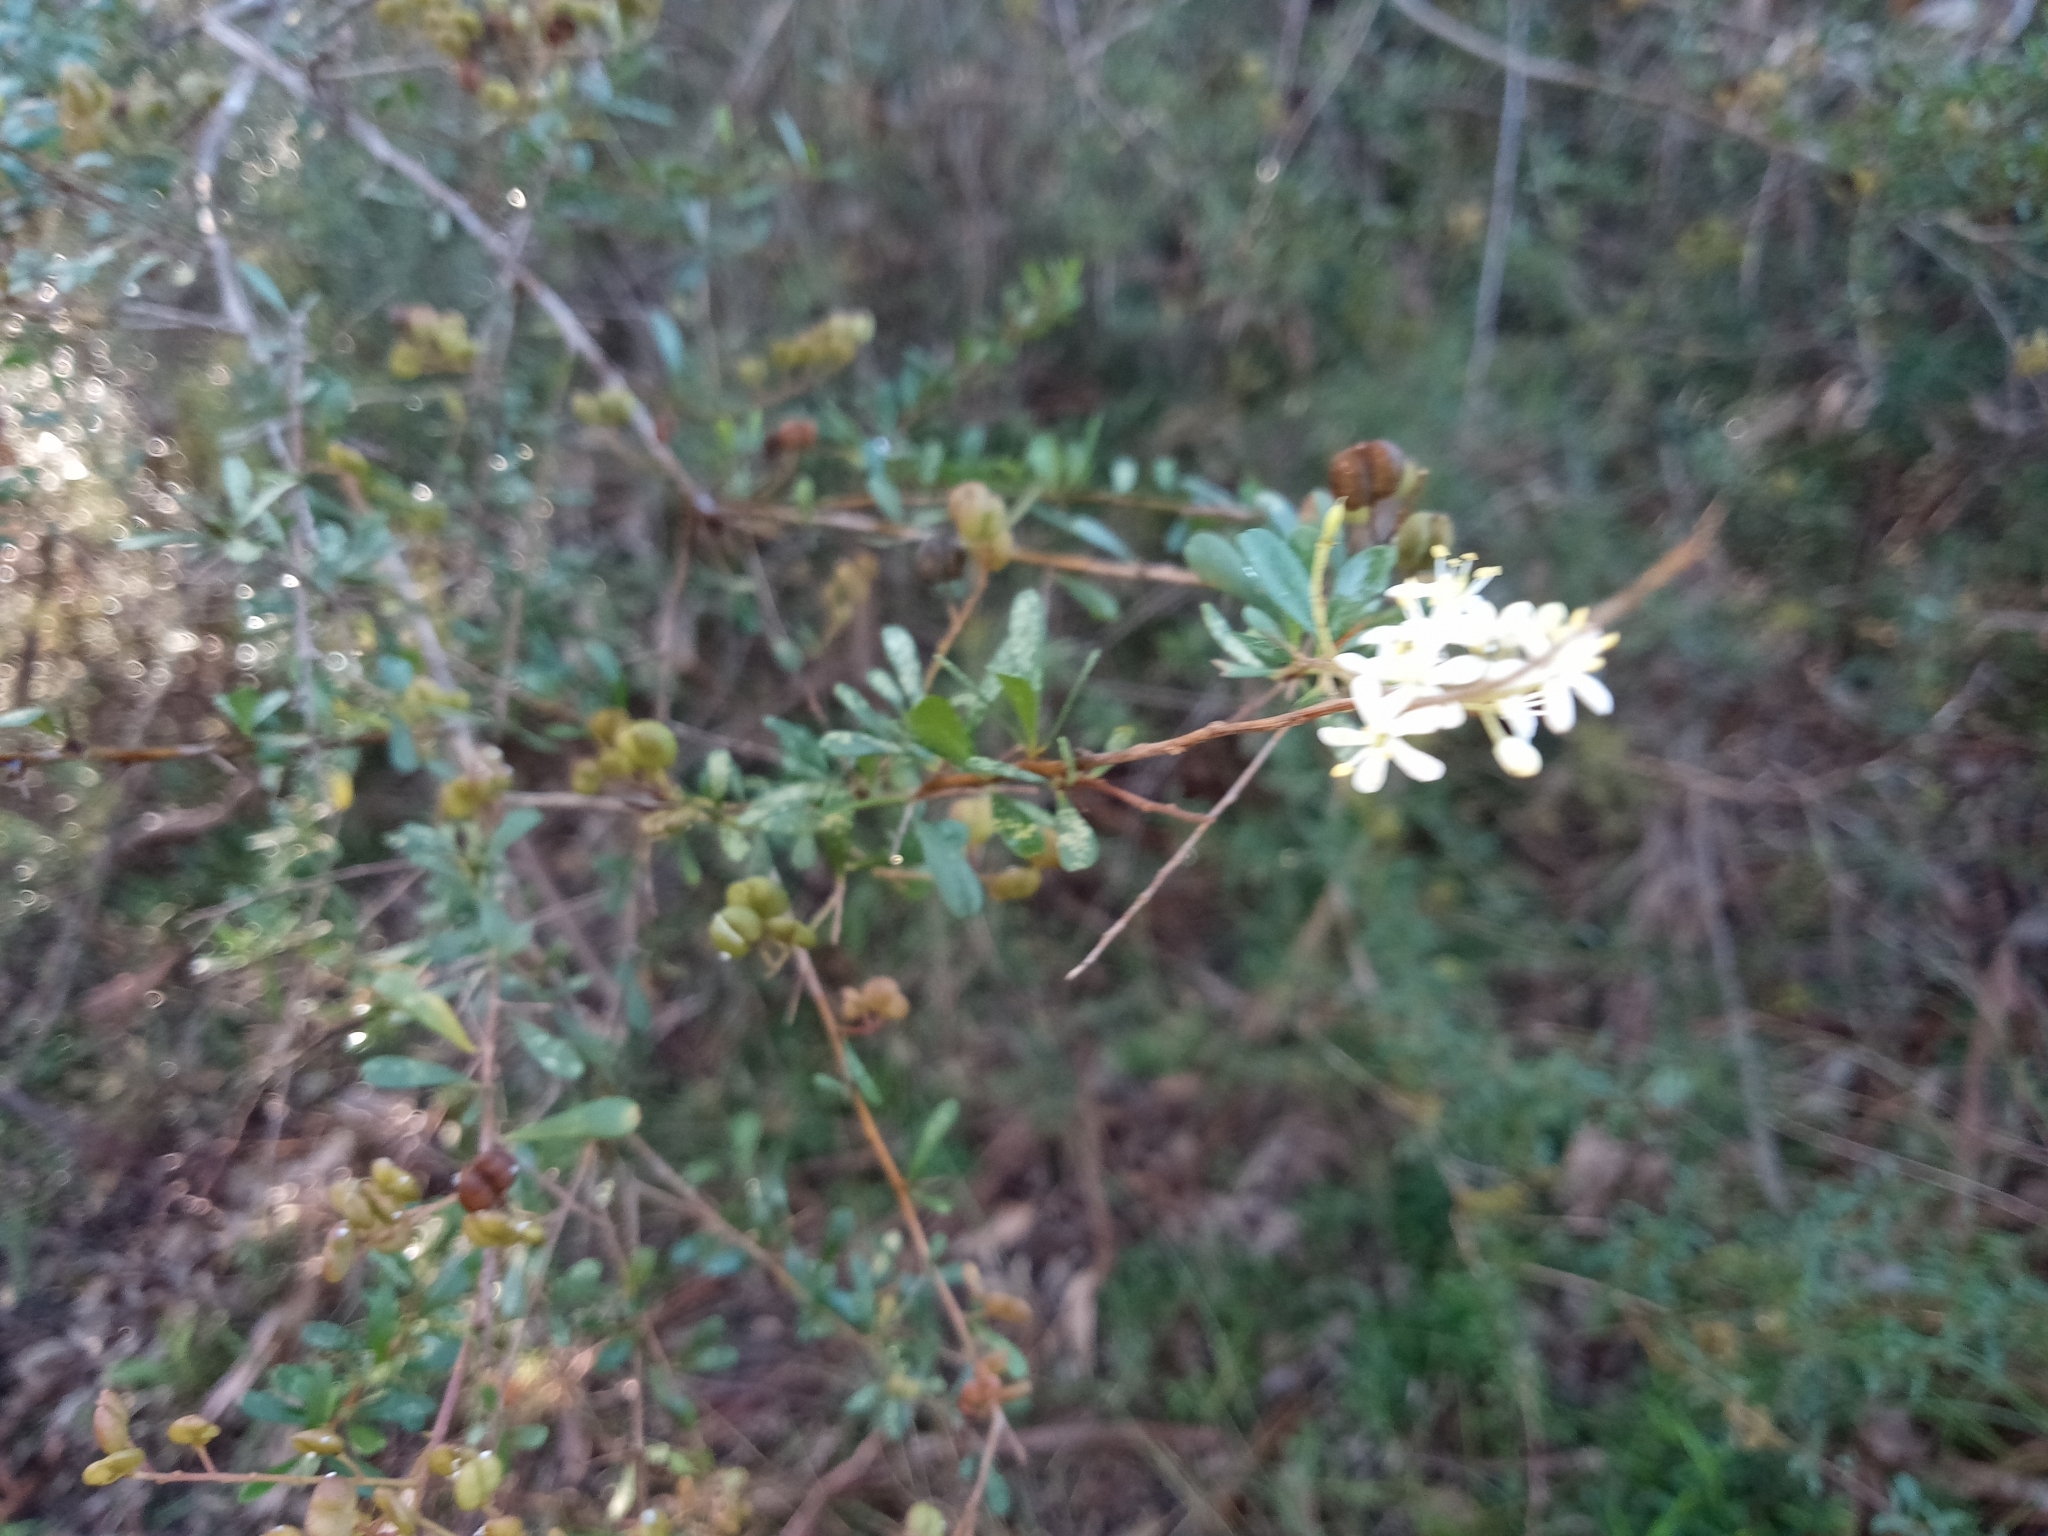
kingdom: Plantae
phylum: Tracheophyta
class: Magnoliopsida
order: Apiales
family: Pittosporaceae
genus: Bursaria
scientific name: Bursaria spinosa
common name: Australian blackthorn
